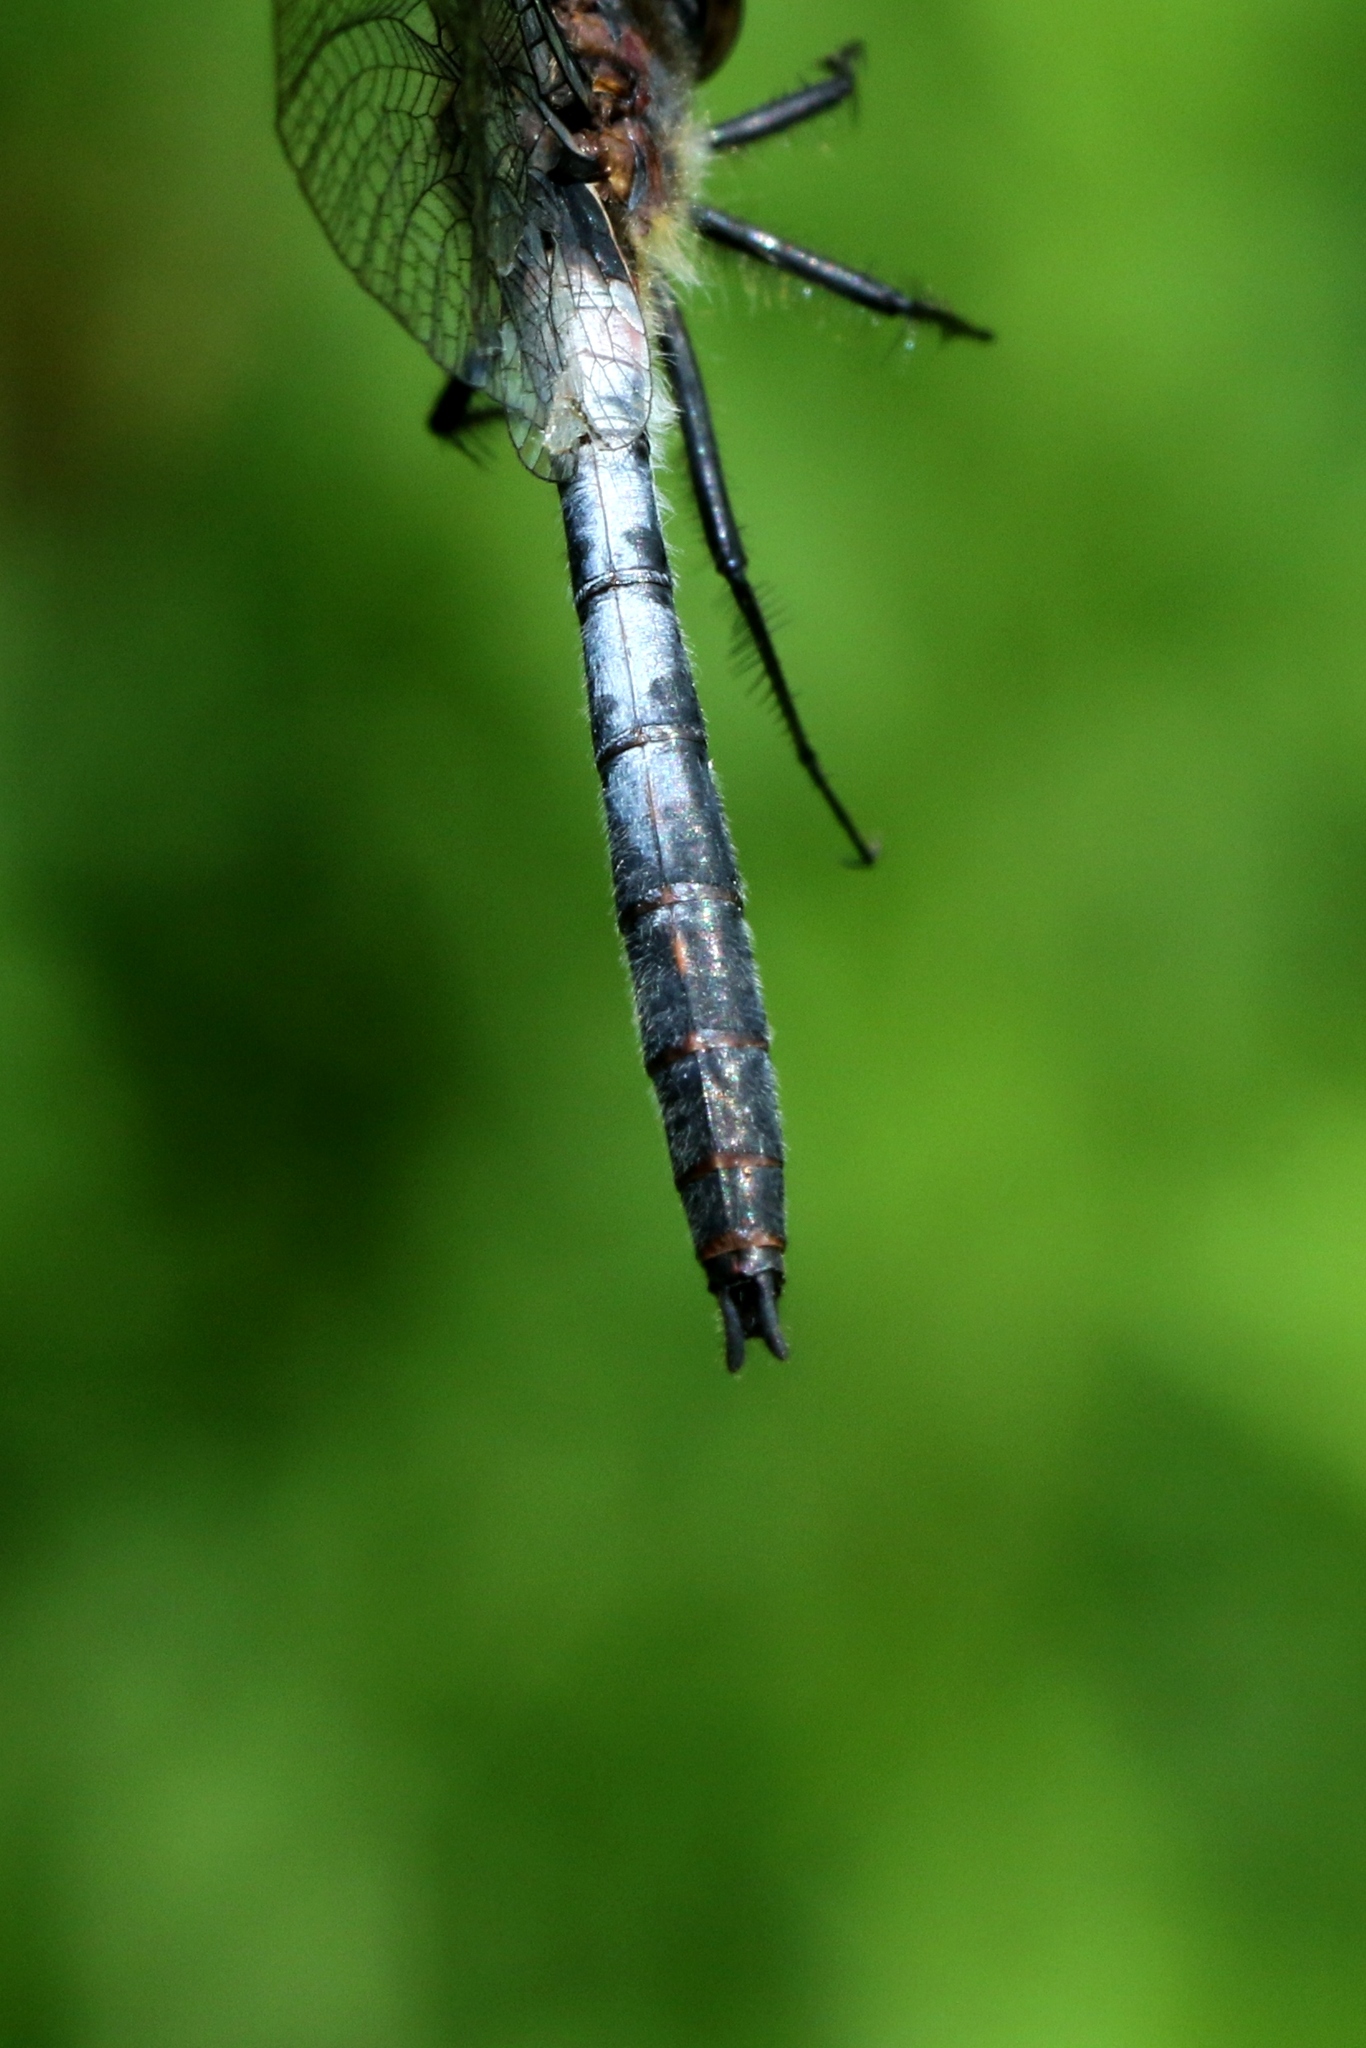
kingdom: Animalia
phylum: Arthropoda
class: Insecta
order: Odonata
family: Libellulidae
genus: Leucorrhinia
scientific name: Leucorrhinia proxima
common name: Belted whiteface
